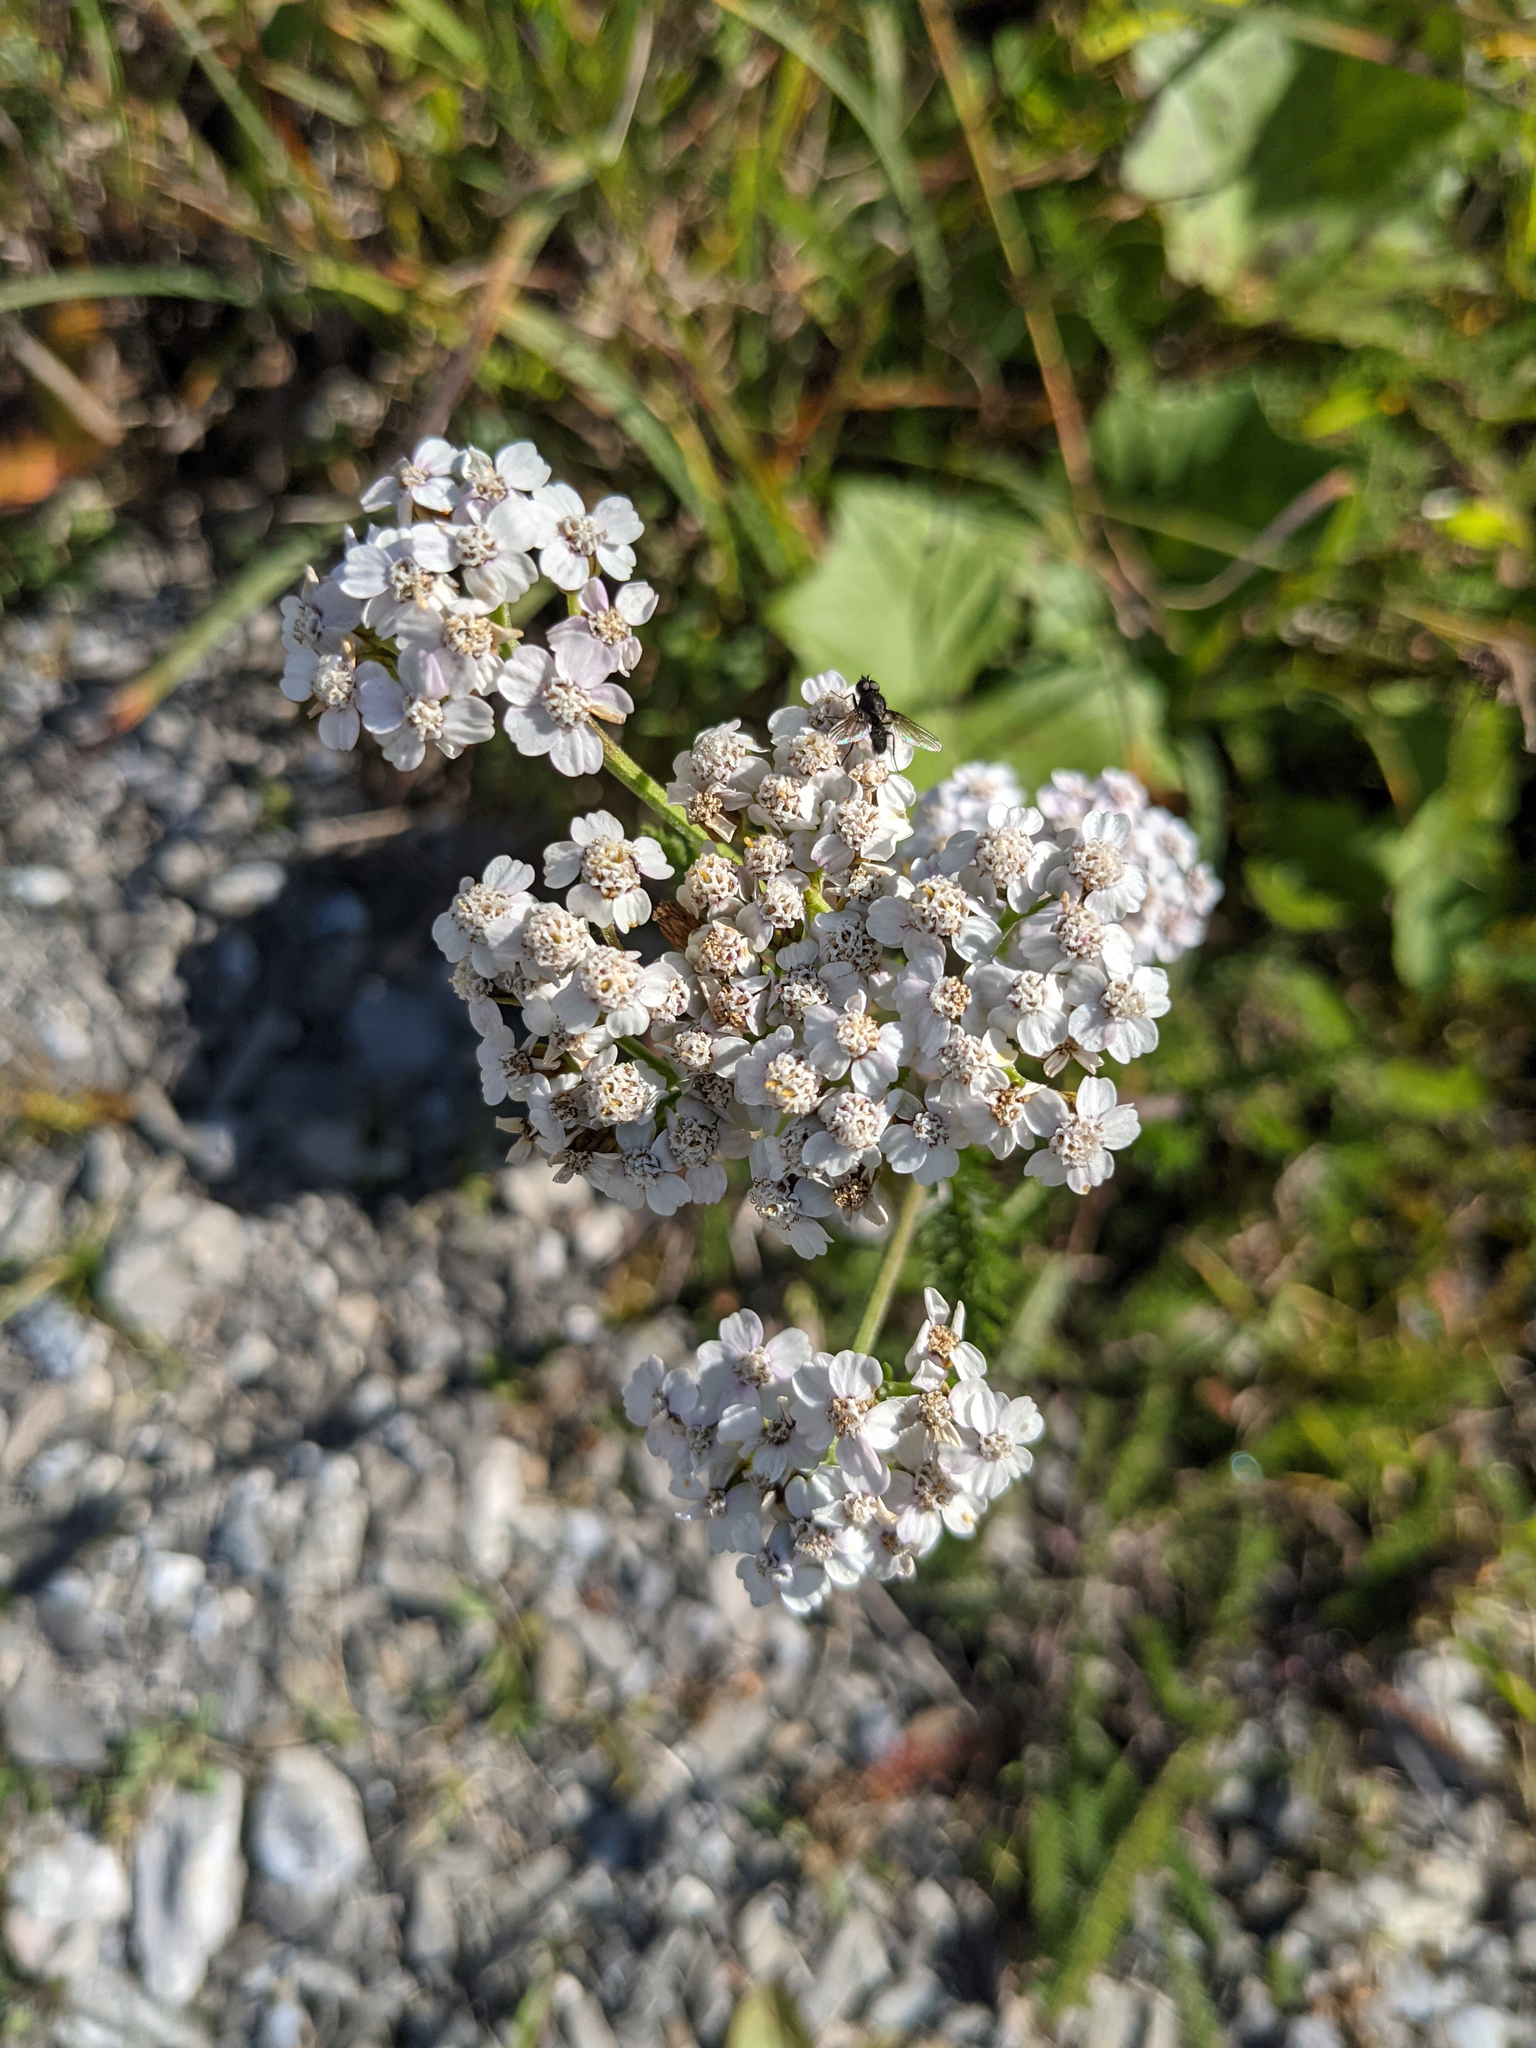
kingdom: Plantae
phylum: Tracheophyta
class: Magnoliopsida
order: Asterales
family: Asteraceae
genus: Achillea
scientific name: Achillea millefolium
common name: Yarrow
